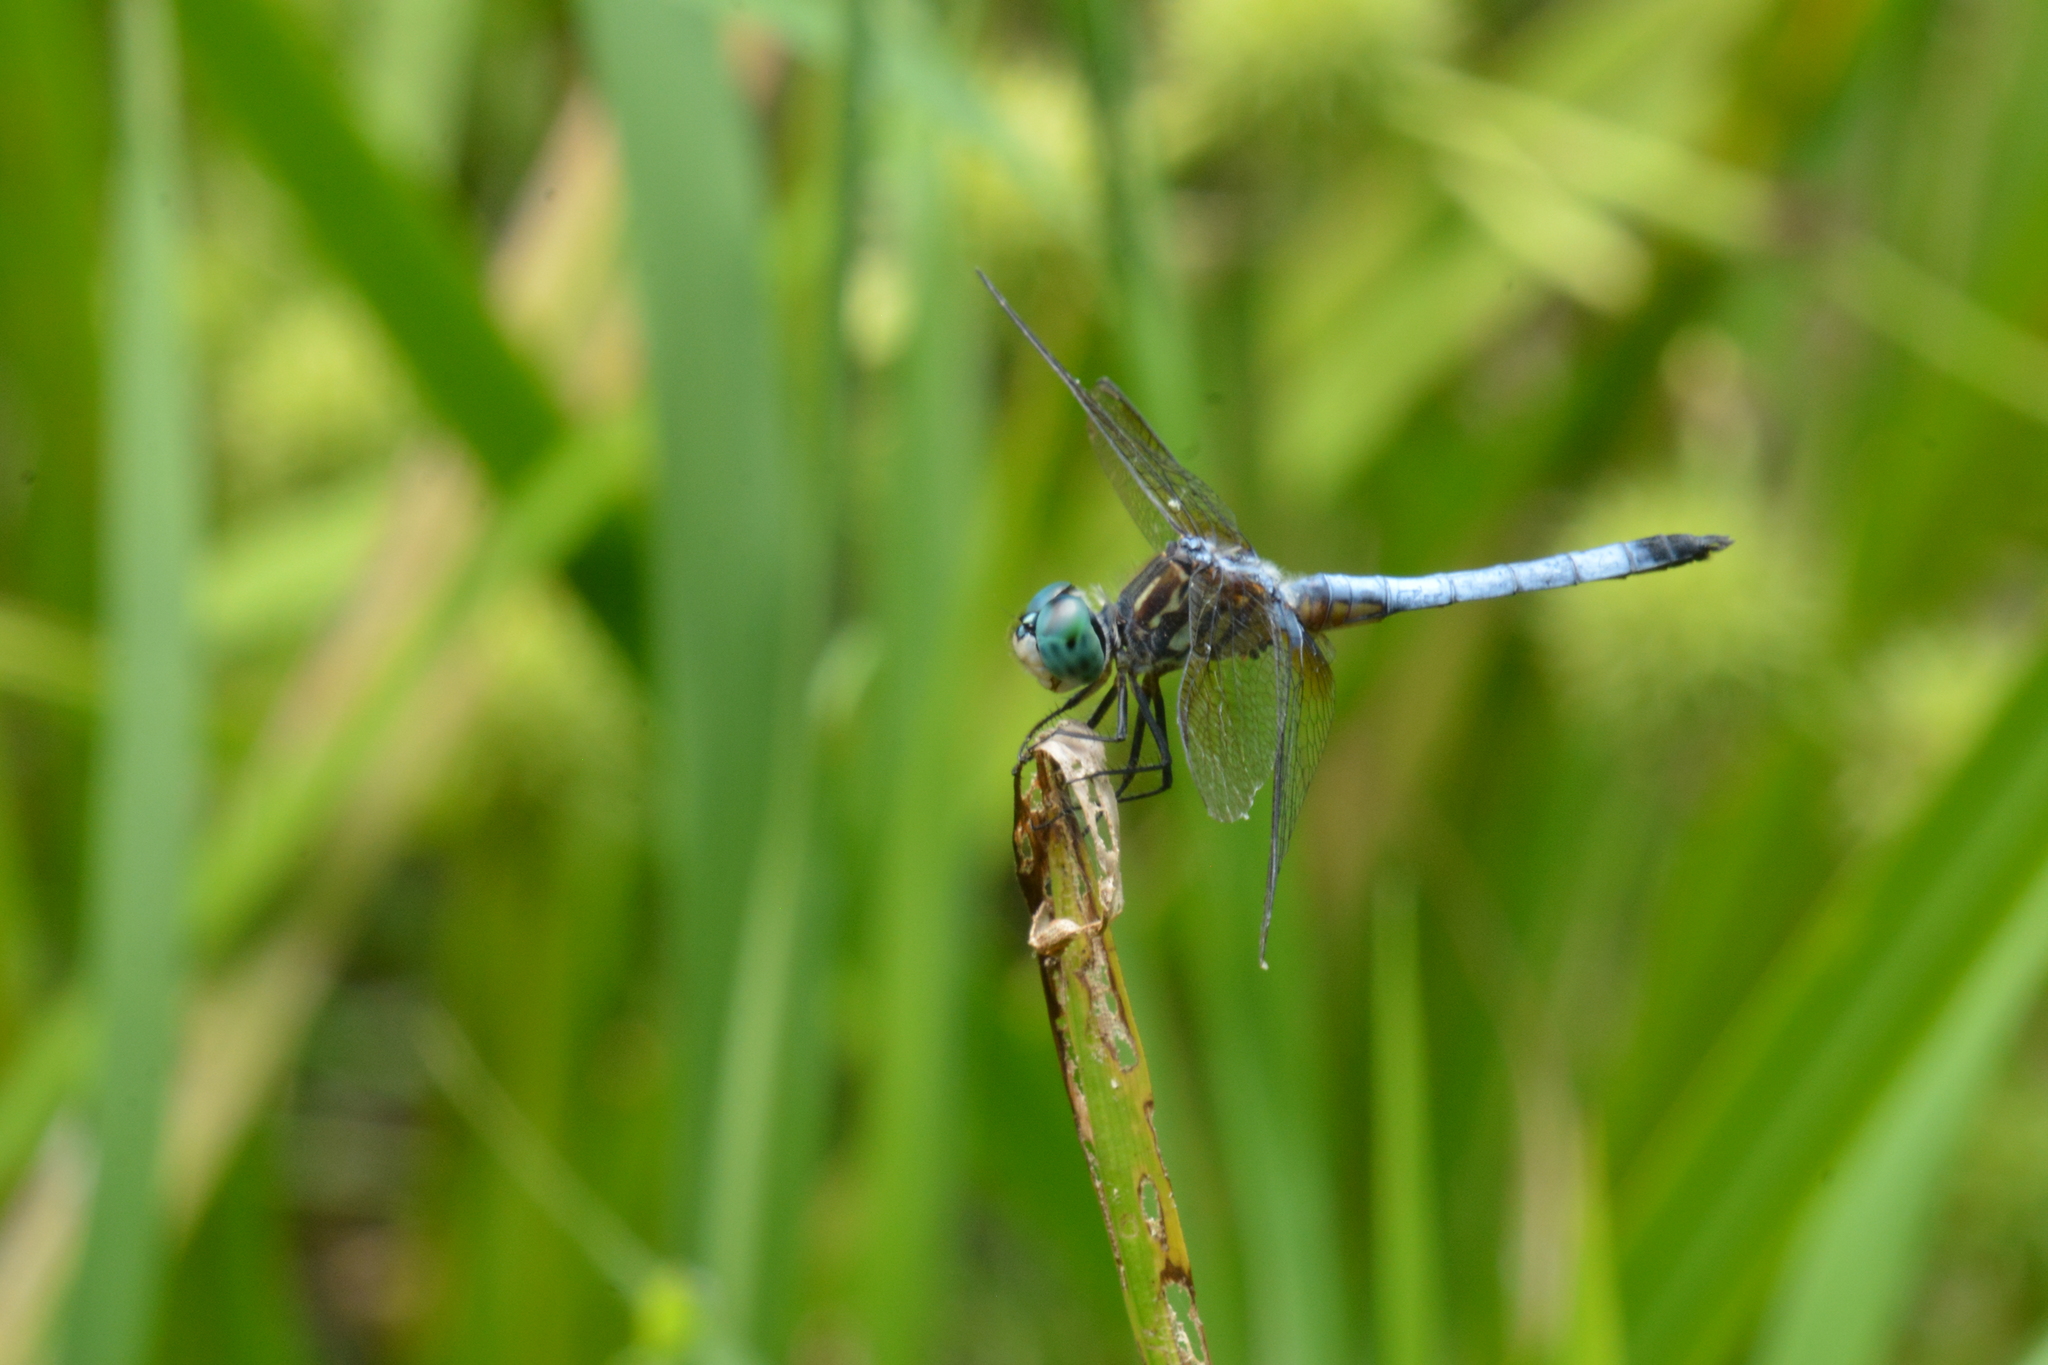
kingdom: Animalia
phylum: Arthropoda
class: Insecta
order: Odonata
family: Libellulidae
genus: Pachydiplax
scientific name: Pachydiplax longipennis
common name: Blue dasher
